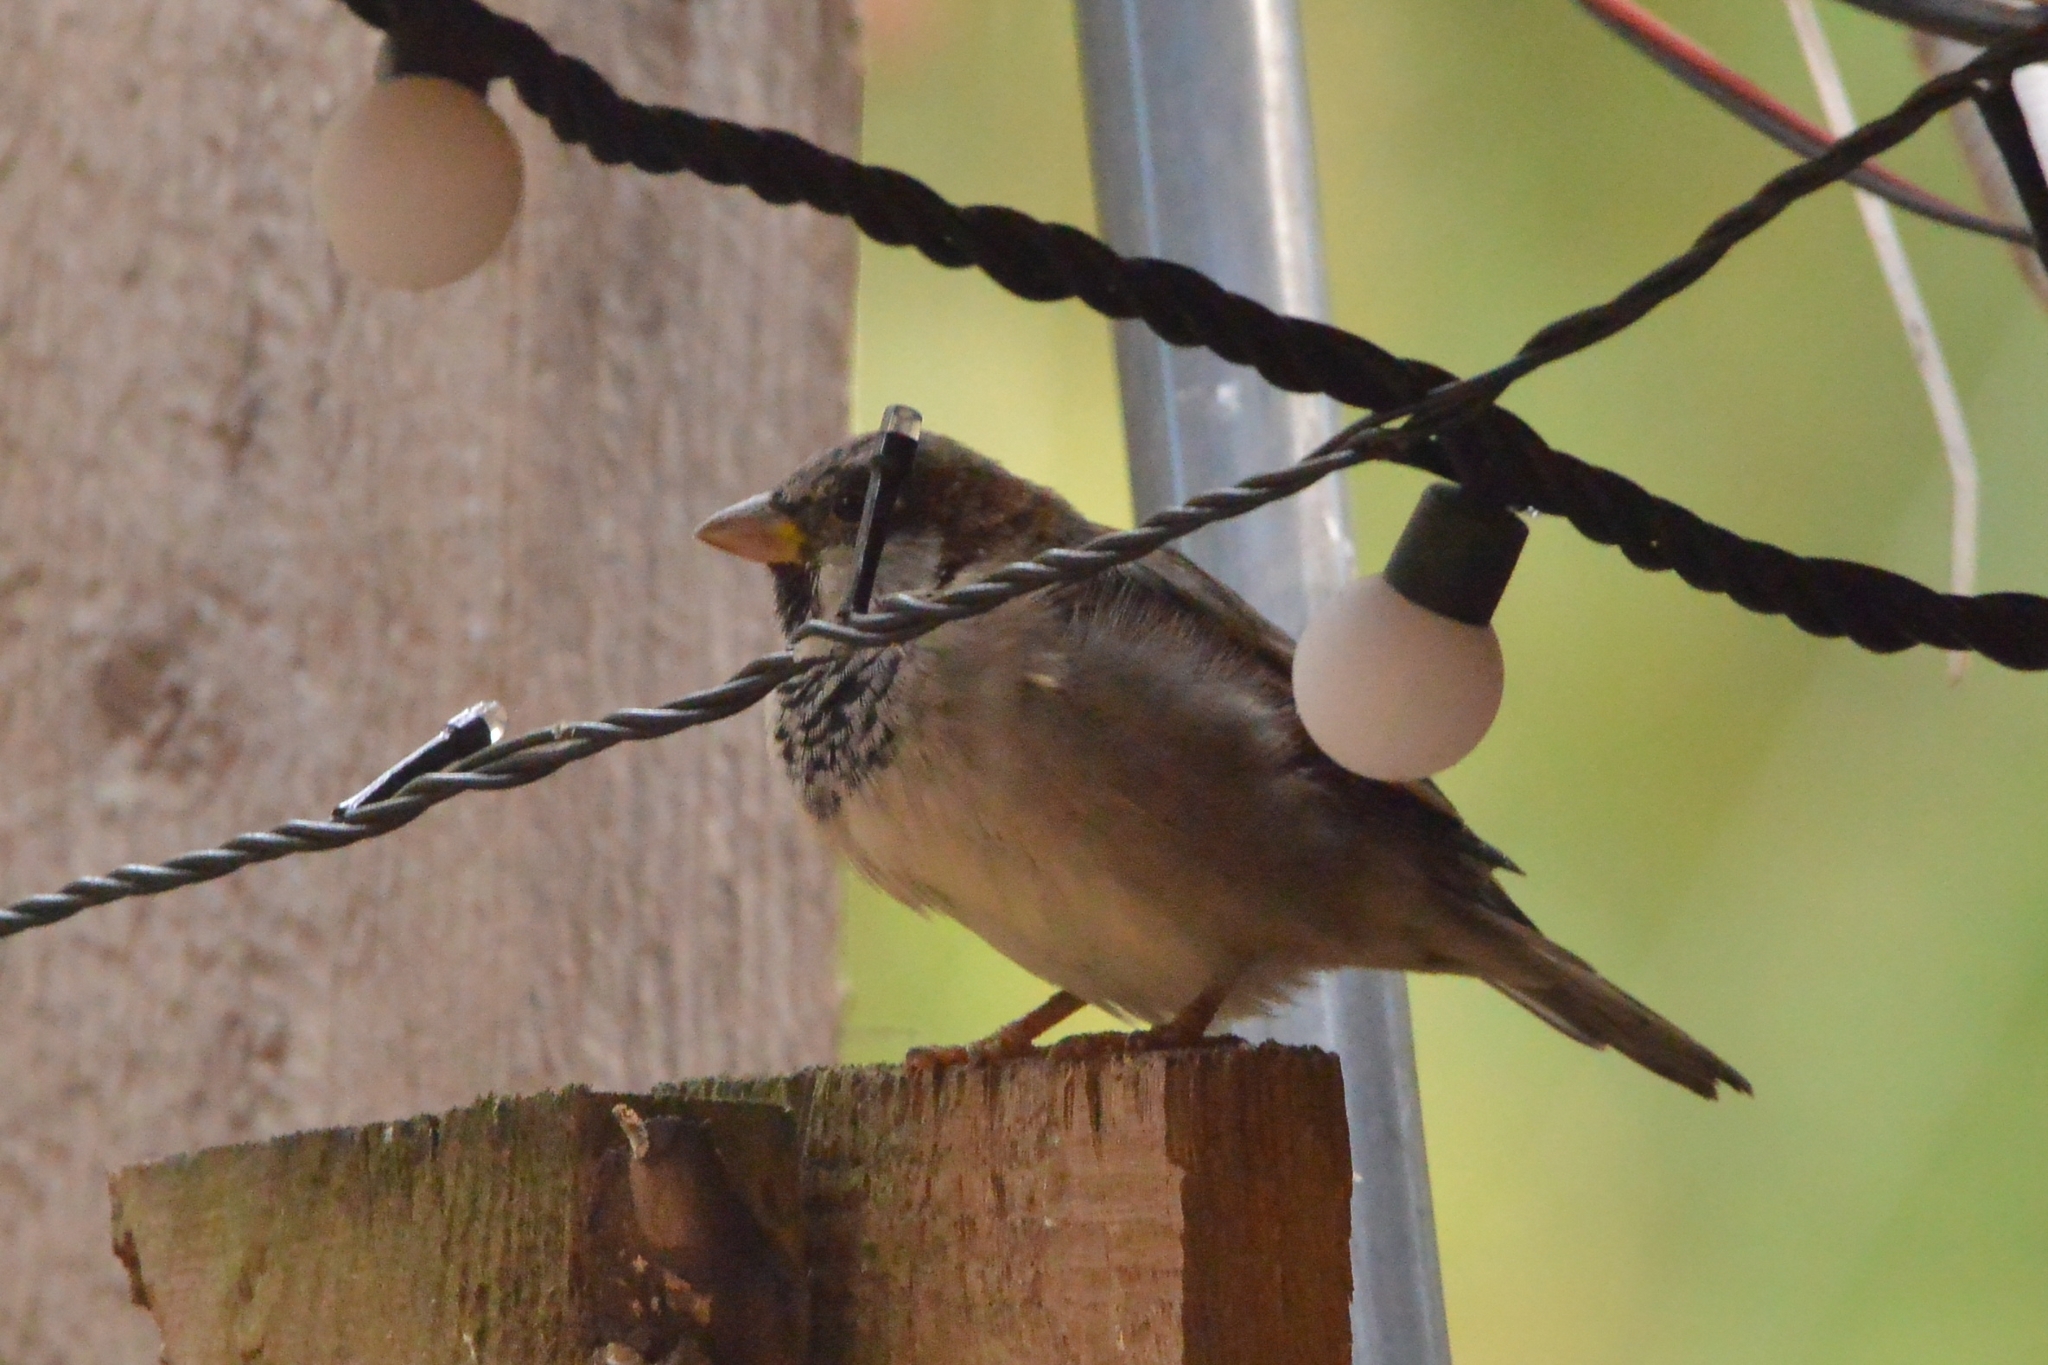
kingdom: Animalia
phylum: Chordata
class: Aves
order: Passeriformes
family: Passeridae
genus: Passer
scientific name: Passer domesticus
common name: House sparrow
